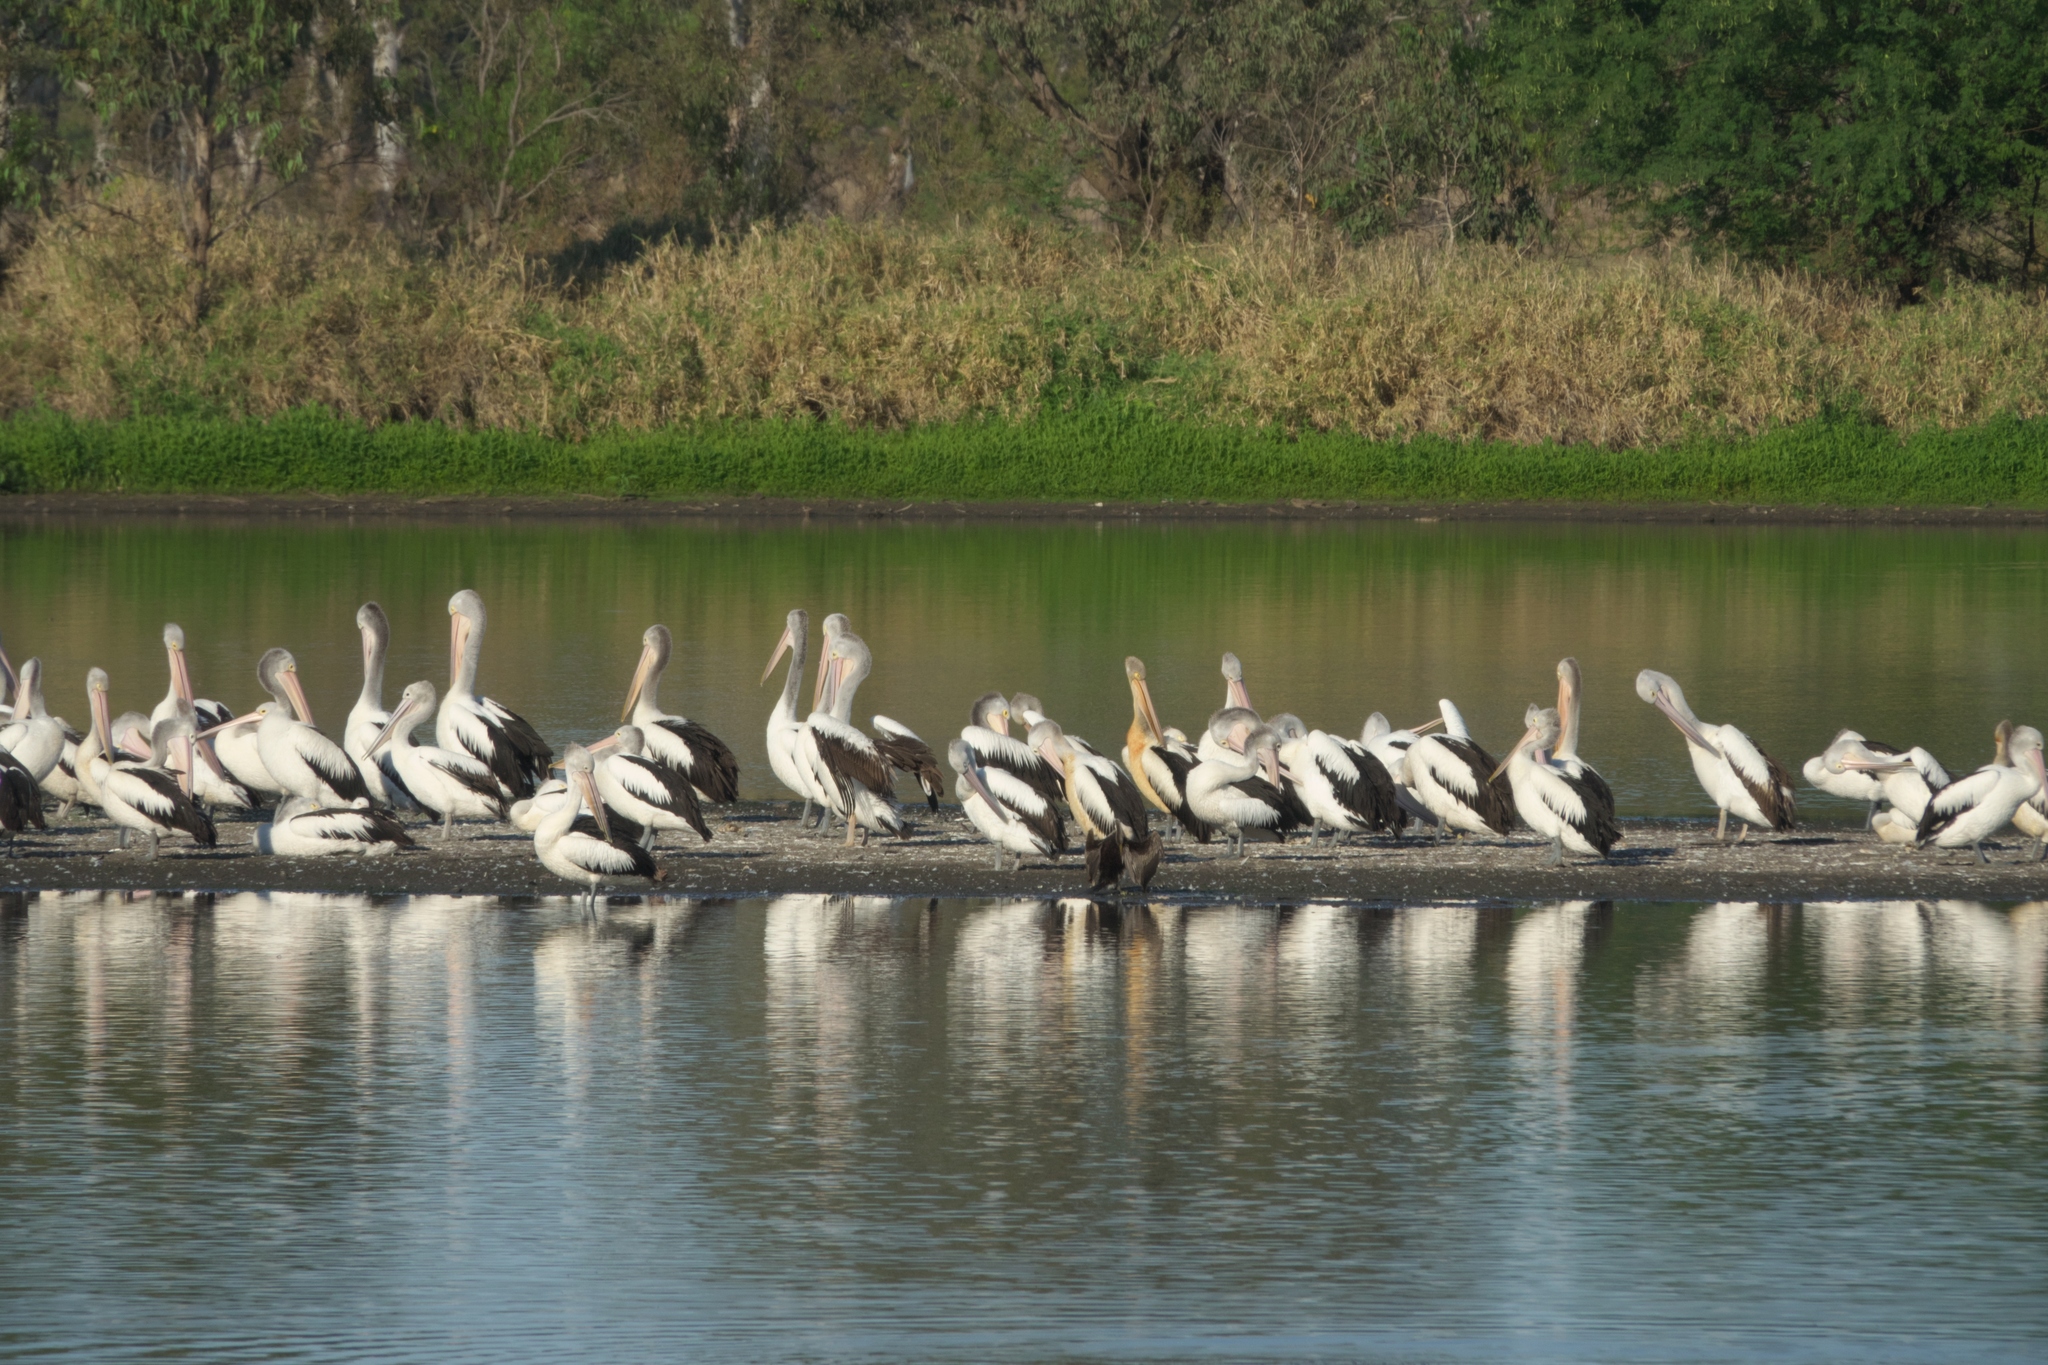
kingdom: Animalia
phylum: Chordata
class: Aves
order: Pelecaniformes
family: Pelecanidae
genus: Pelecanus
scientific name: Pelecanus conspicillatus
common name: Australian pelican
